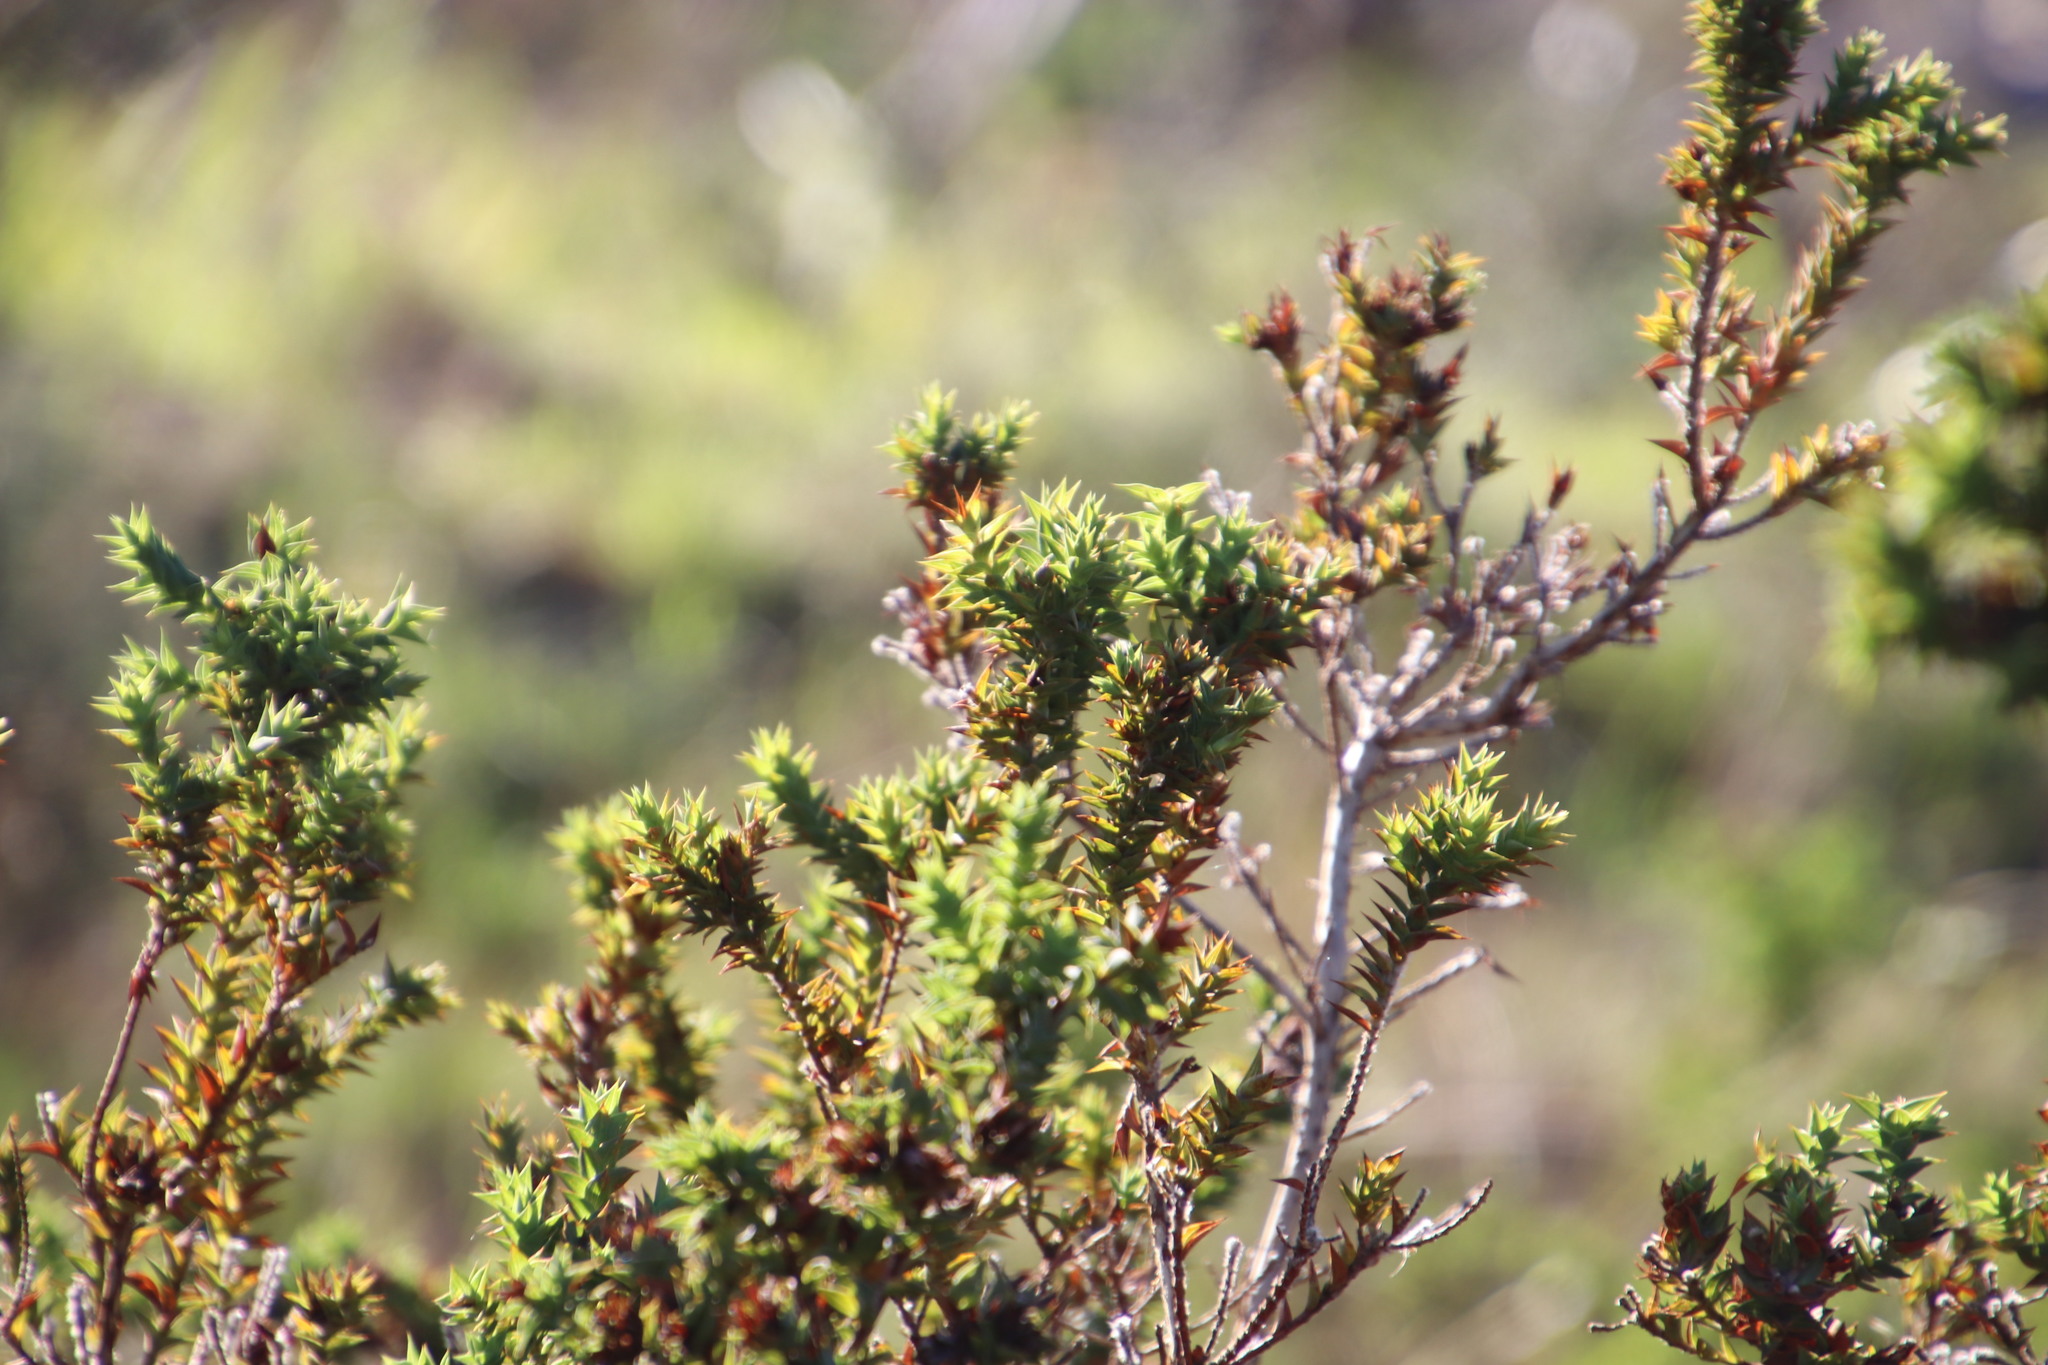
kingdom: Plantae
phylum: Tracheophyta
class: Magnoliopsida
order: Fabales
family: Fabaceae
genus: Aspalathus
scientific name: Aspalathus cordata
